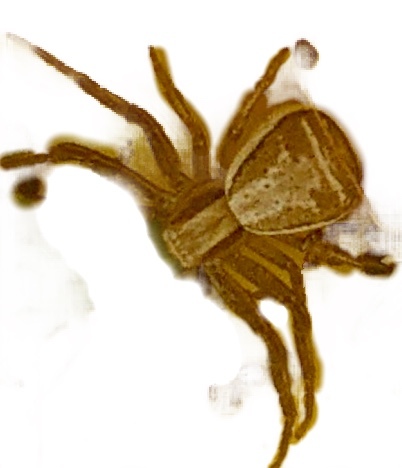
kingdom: Animalia
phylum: Arthropoda
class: Arachnida
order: Araneae
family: Thomisidae
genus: Xysticus
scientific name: Xysticus ulmi
